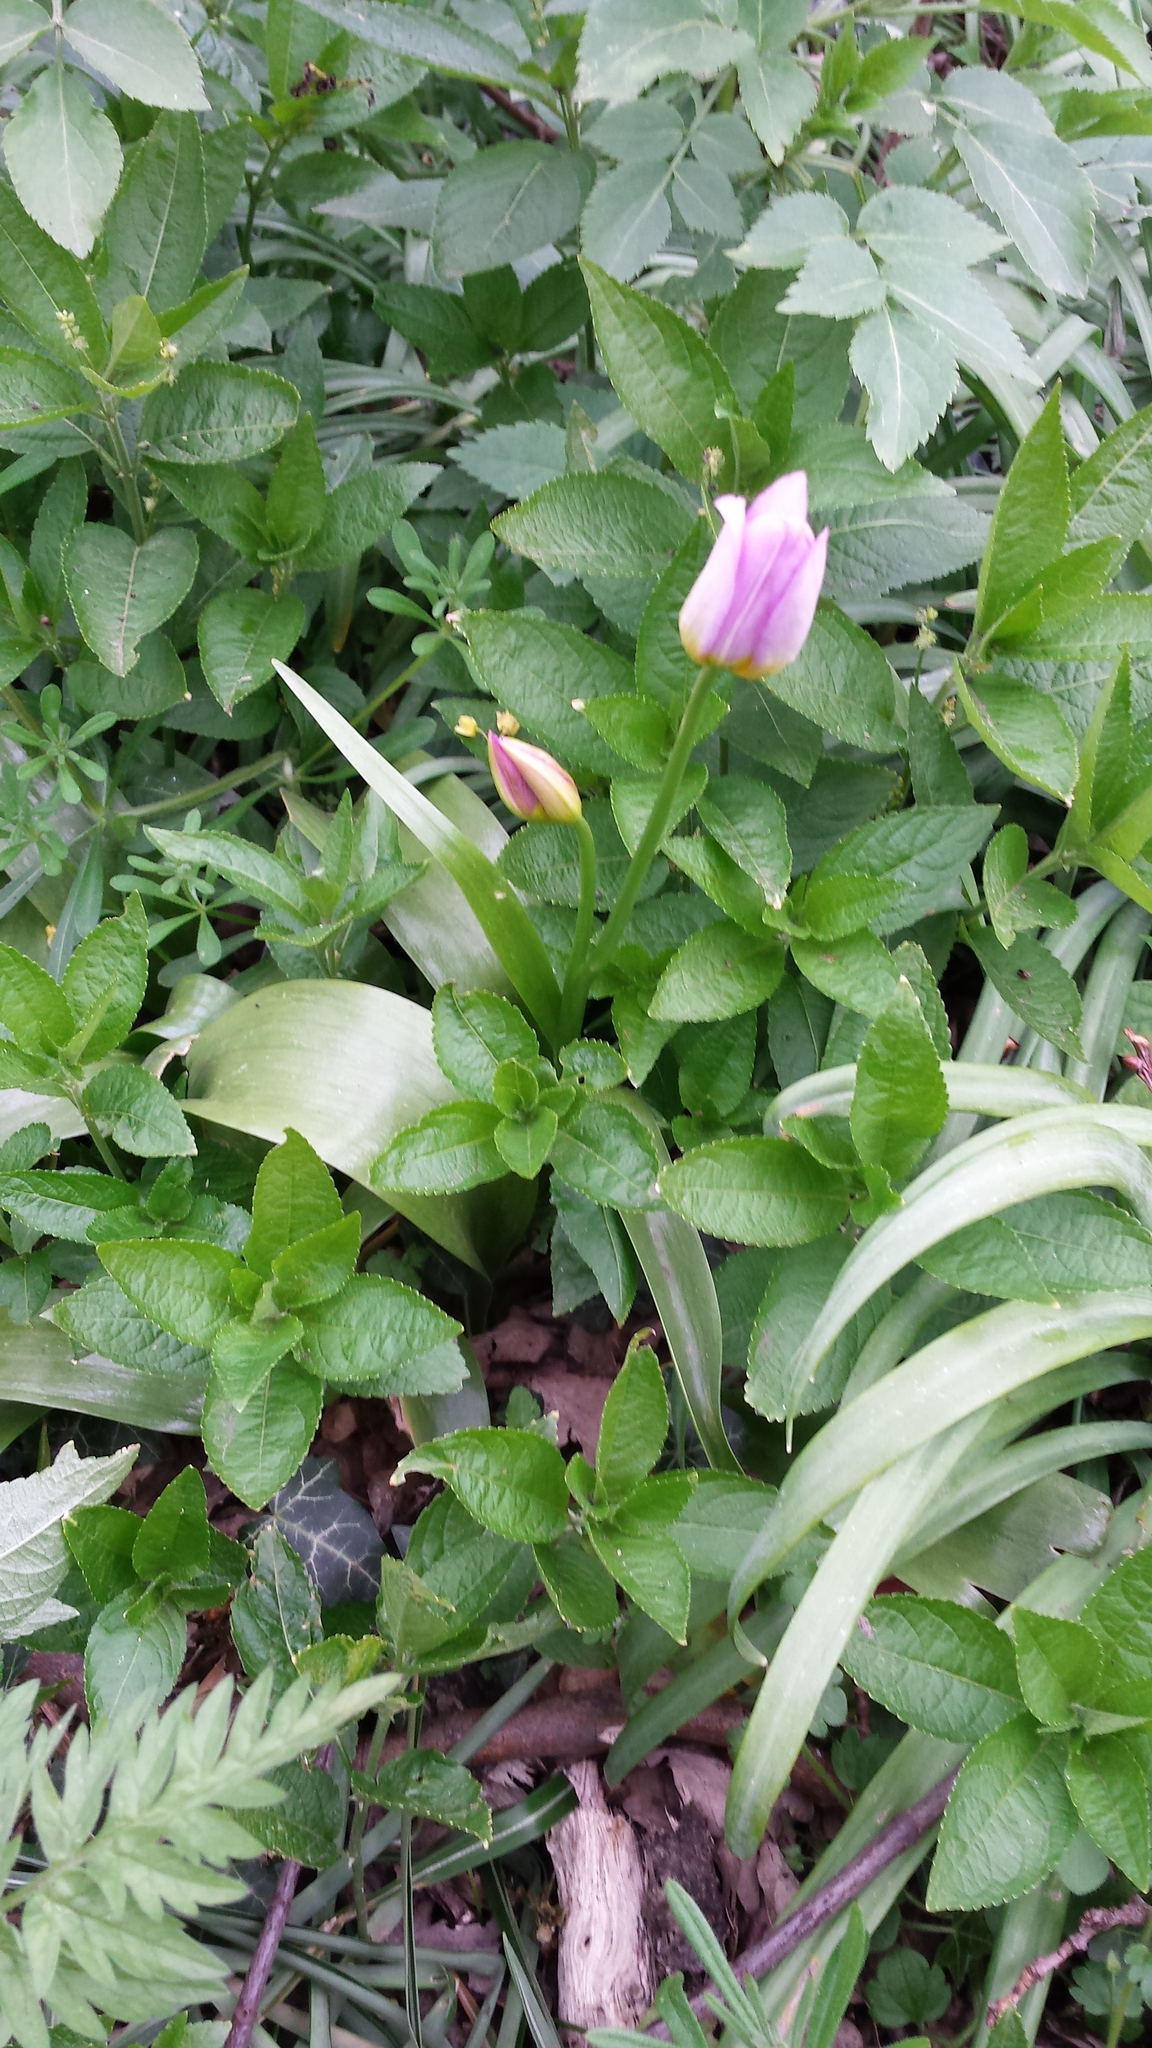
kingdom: Plantae
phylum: Tracheophyta
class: Magnoliopsida
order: Malpighiales
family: Euphorbiaceae
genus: Mercurialis
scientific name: Mercurialis perennis
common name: Dog mercury
